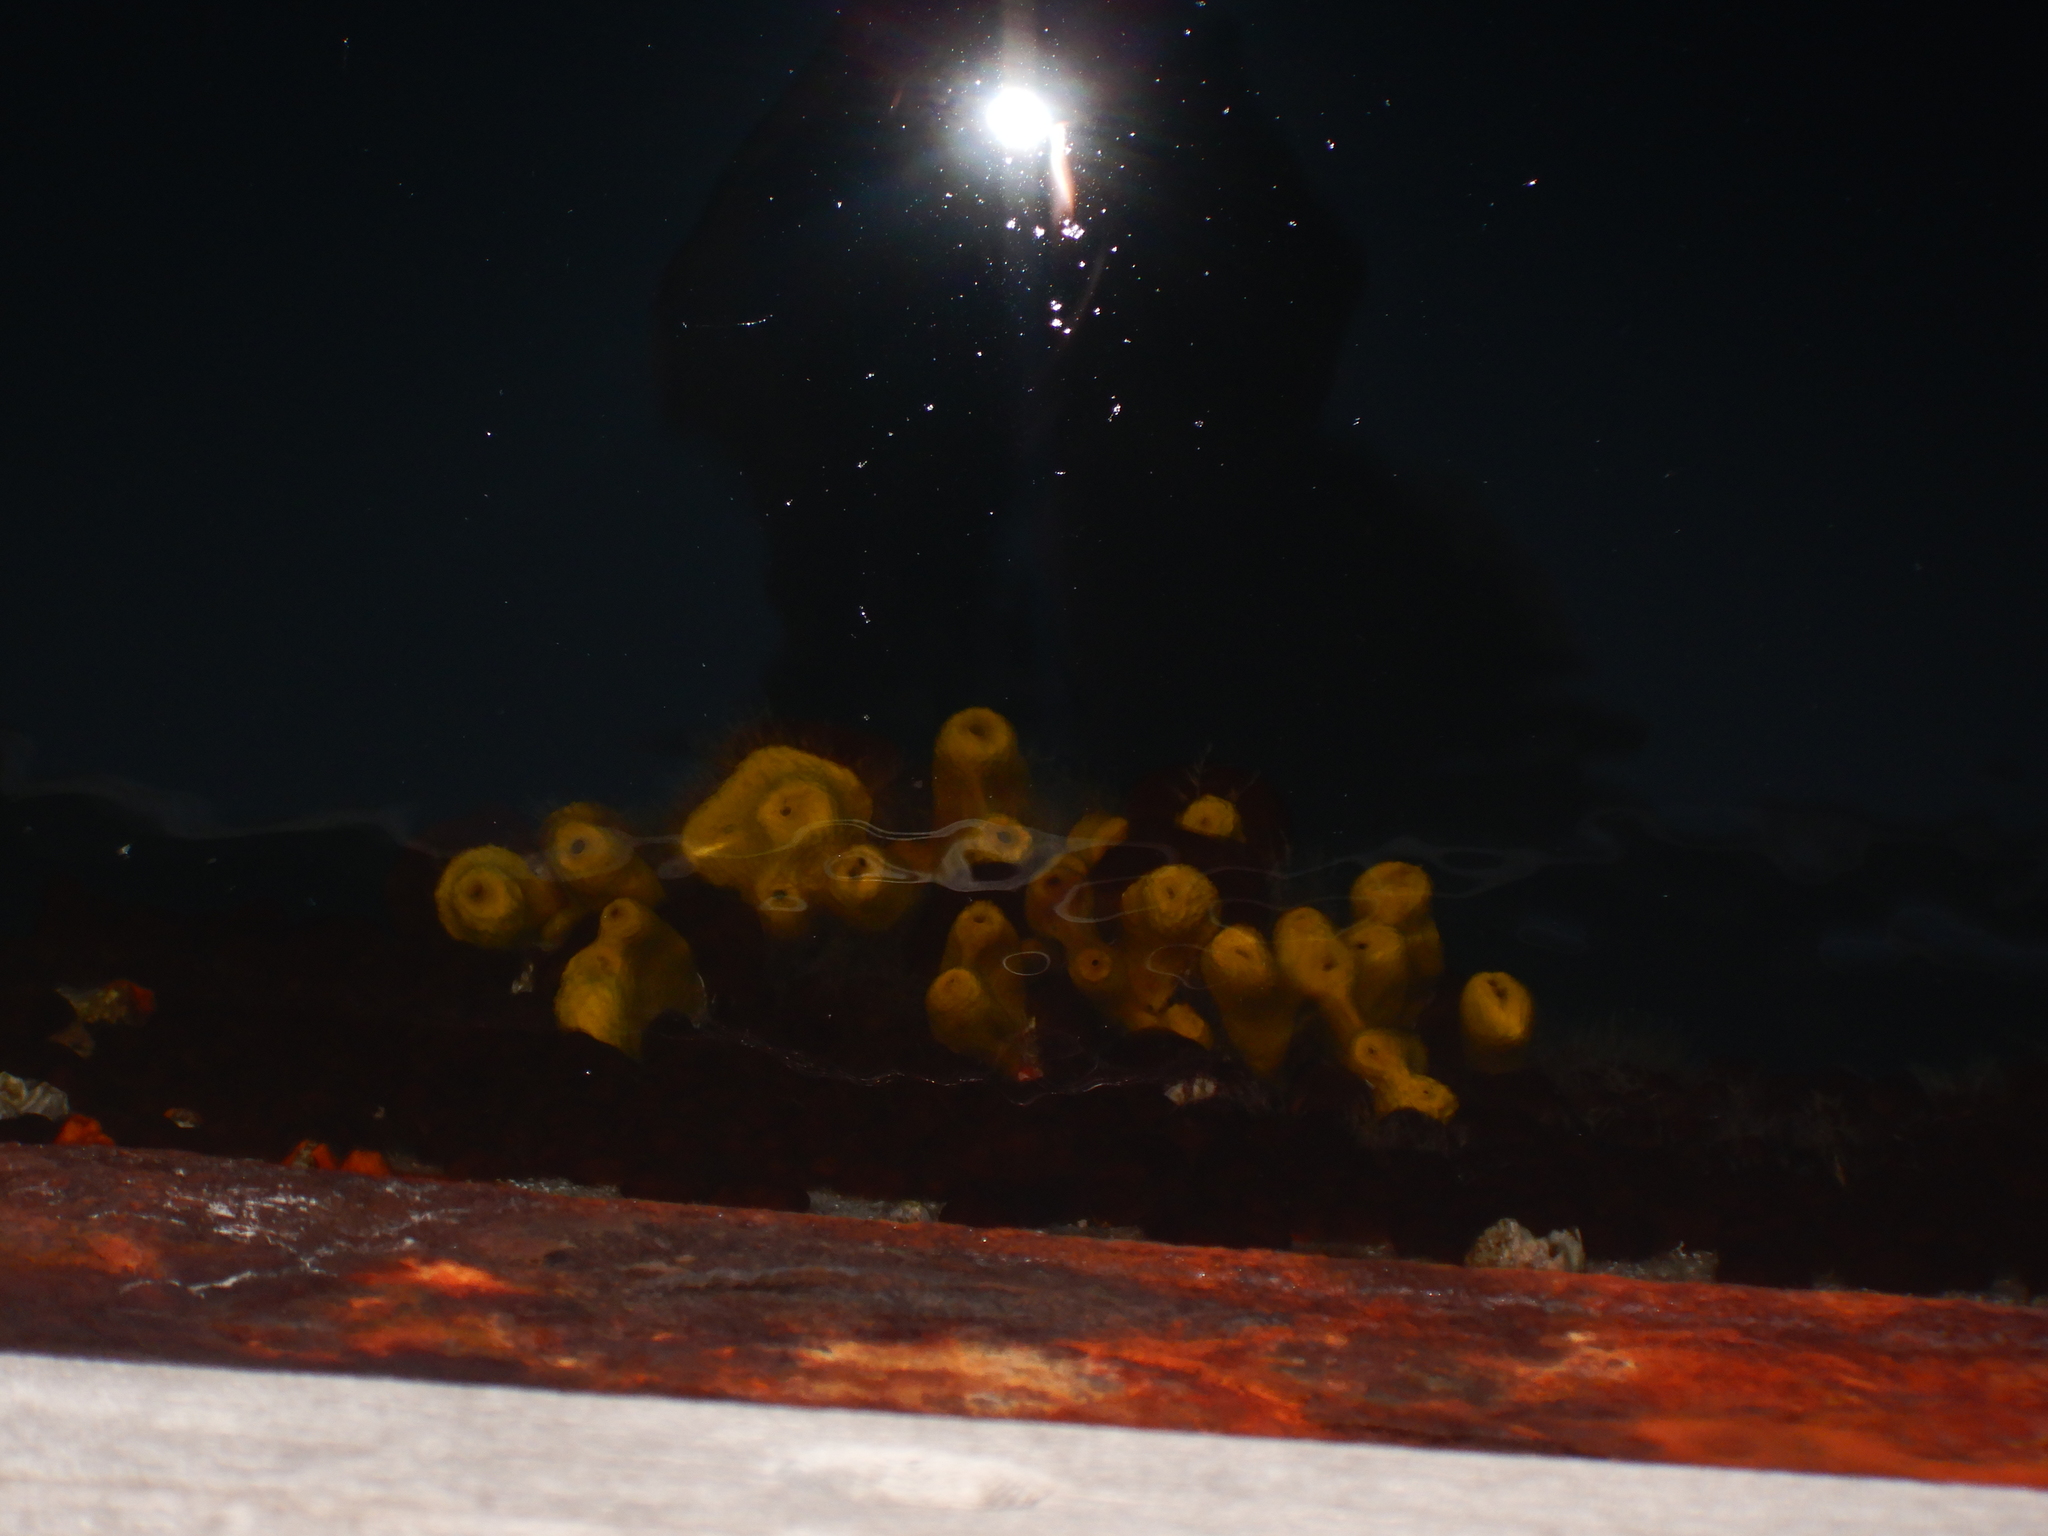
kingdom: Animalia
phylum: Porifera
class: Demospongiae
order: Verongiida
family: Aplysinidae
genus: Aplysina
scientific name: Aplysina aerophoba
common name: Aureate sponge
